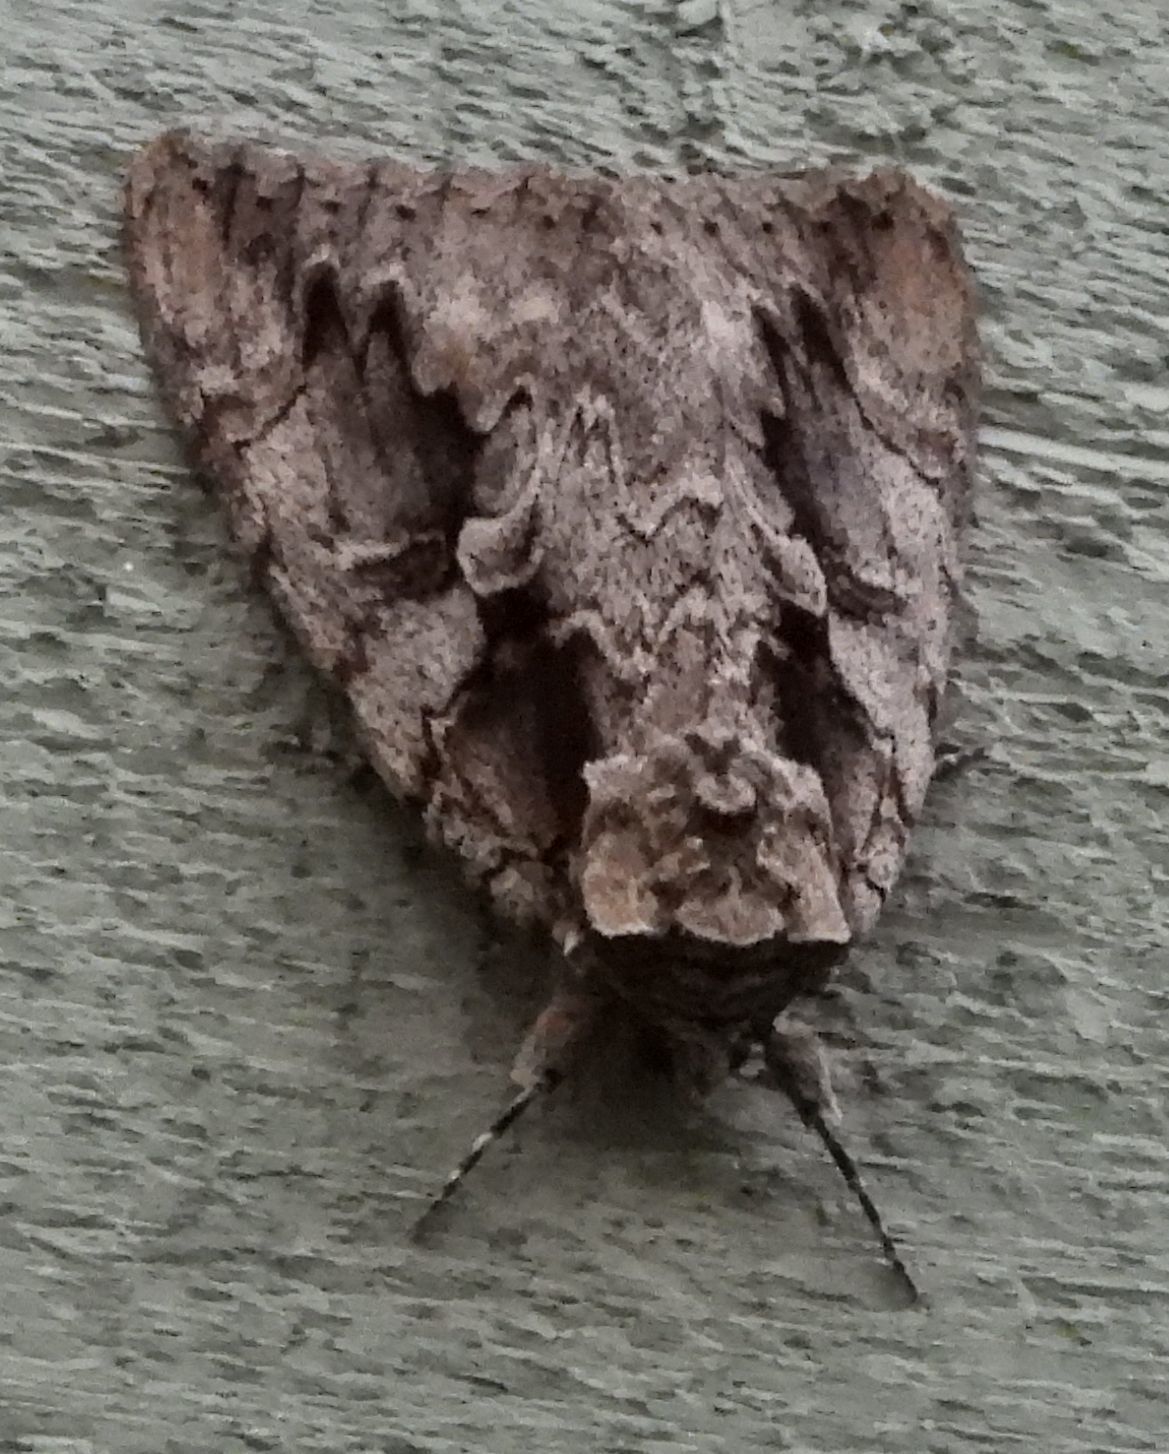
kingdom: Animalia
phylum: Arthropoda
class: Insecta
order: Lepidoptera
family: Erebidae
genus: Catocala
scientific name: Catocala amatrix
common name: Sweetheart underwing
